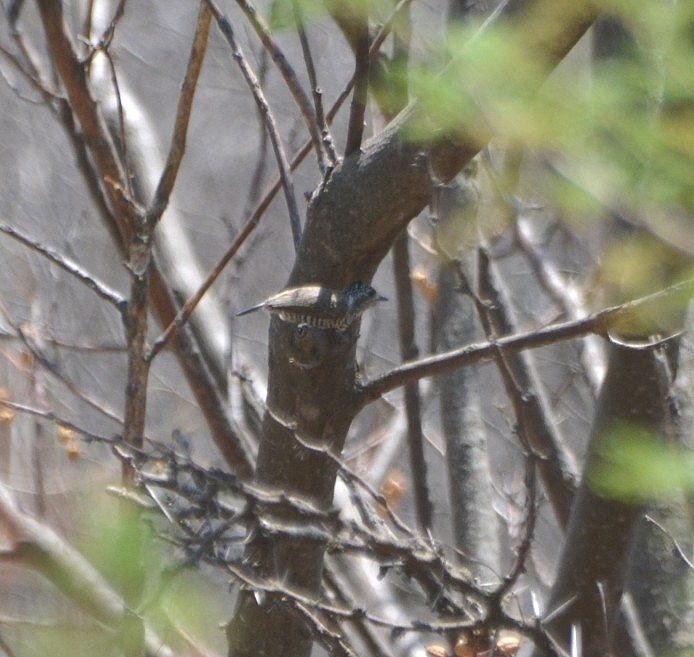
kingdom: Animalia
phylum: Chordata
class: Aves
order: Piciformes
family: Picidae
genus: Picumnus
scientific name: Picumnus cirratus
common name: White-barred piculet
